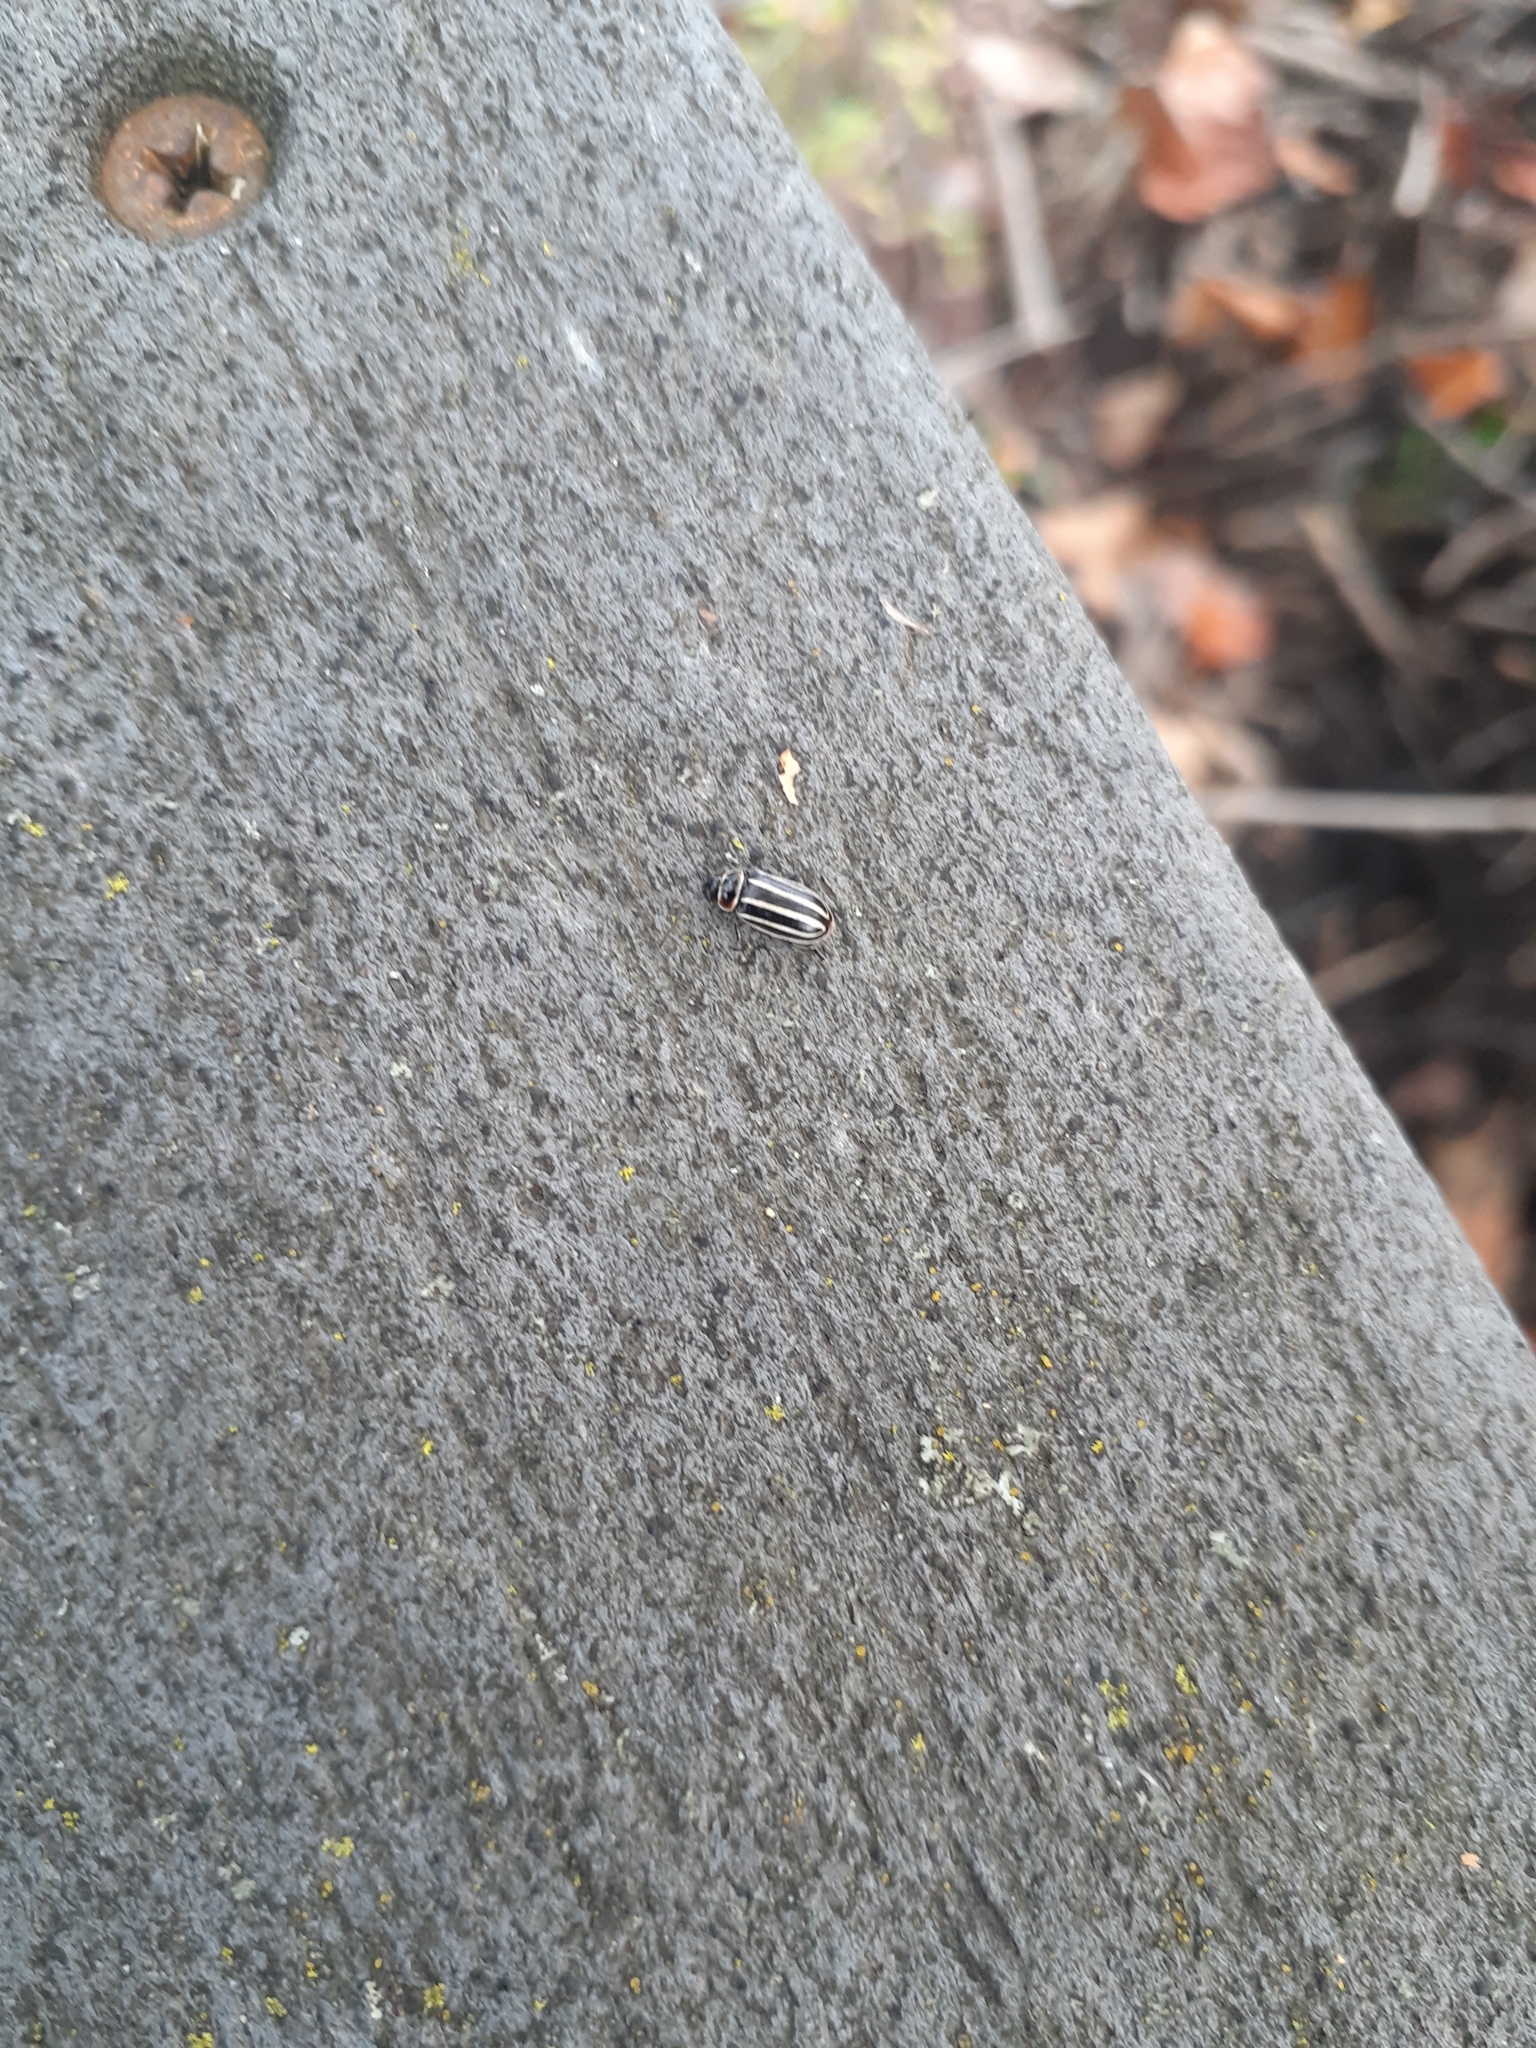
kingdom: Animalia
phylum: Arthropoda
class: Insecta
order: Coleoptera
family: Chrysomelidae
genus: Disonycha
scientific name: Disonycha pensylvanica
